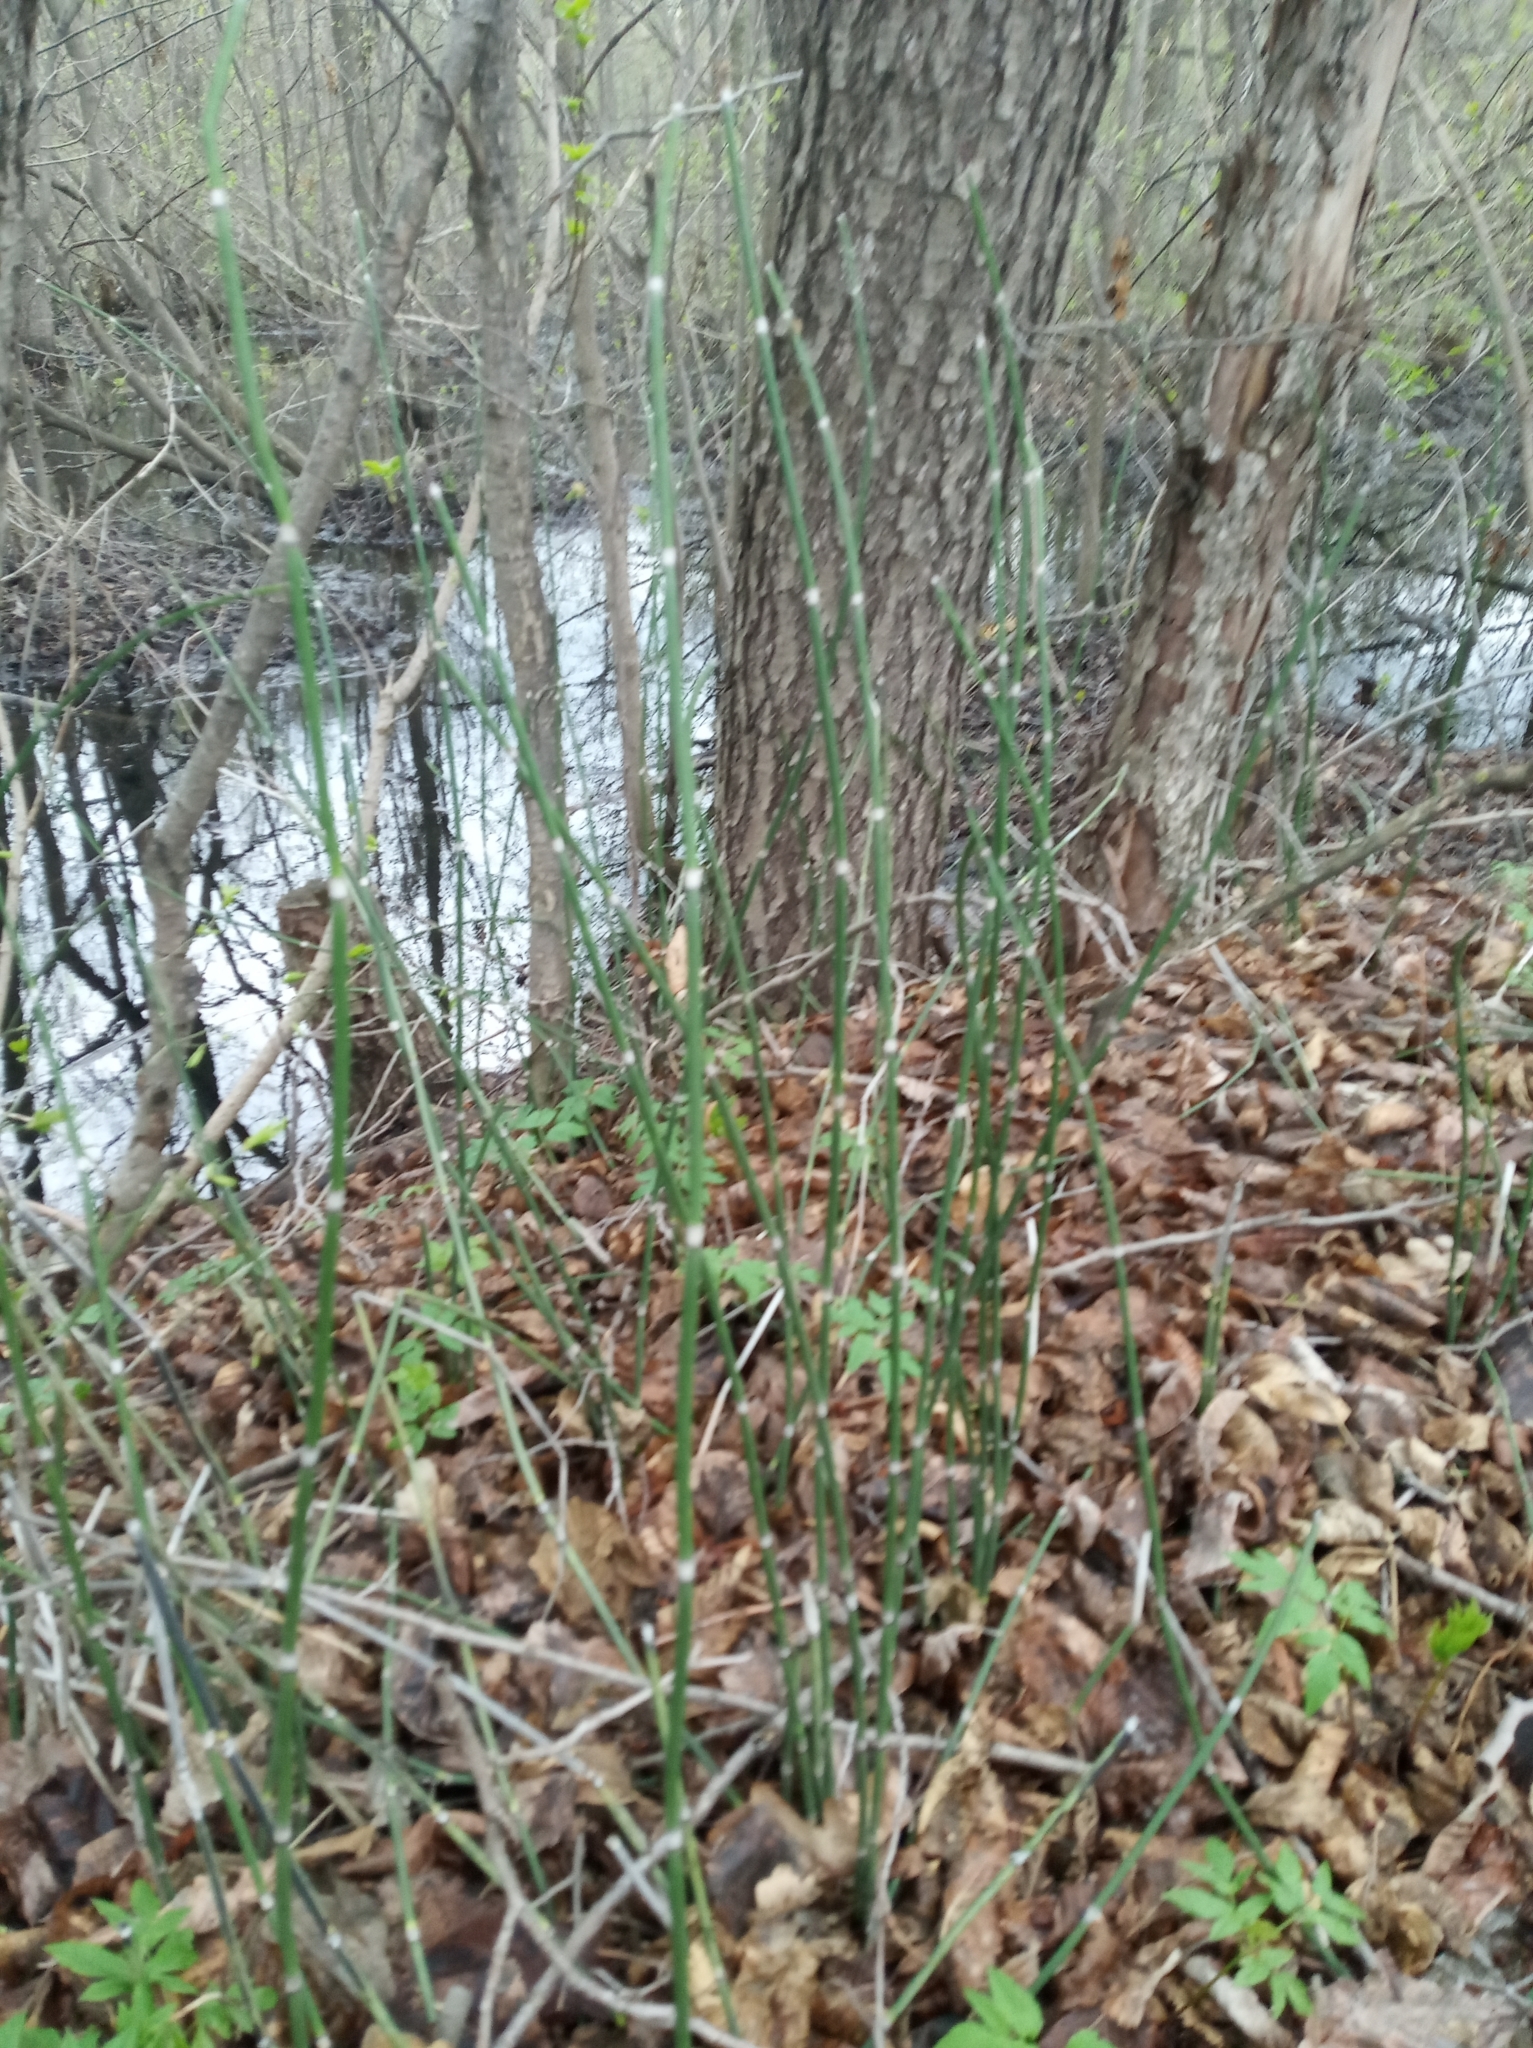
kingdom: Plantae
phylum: Tracheophyta
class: Polypodiopsida
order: Equisetales
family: Equisetaceae
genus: Equisetum
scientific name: Equisetum hyemale
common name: Rough horsetail
